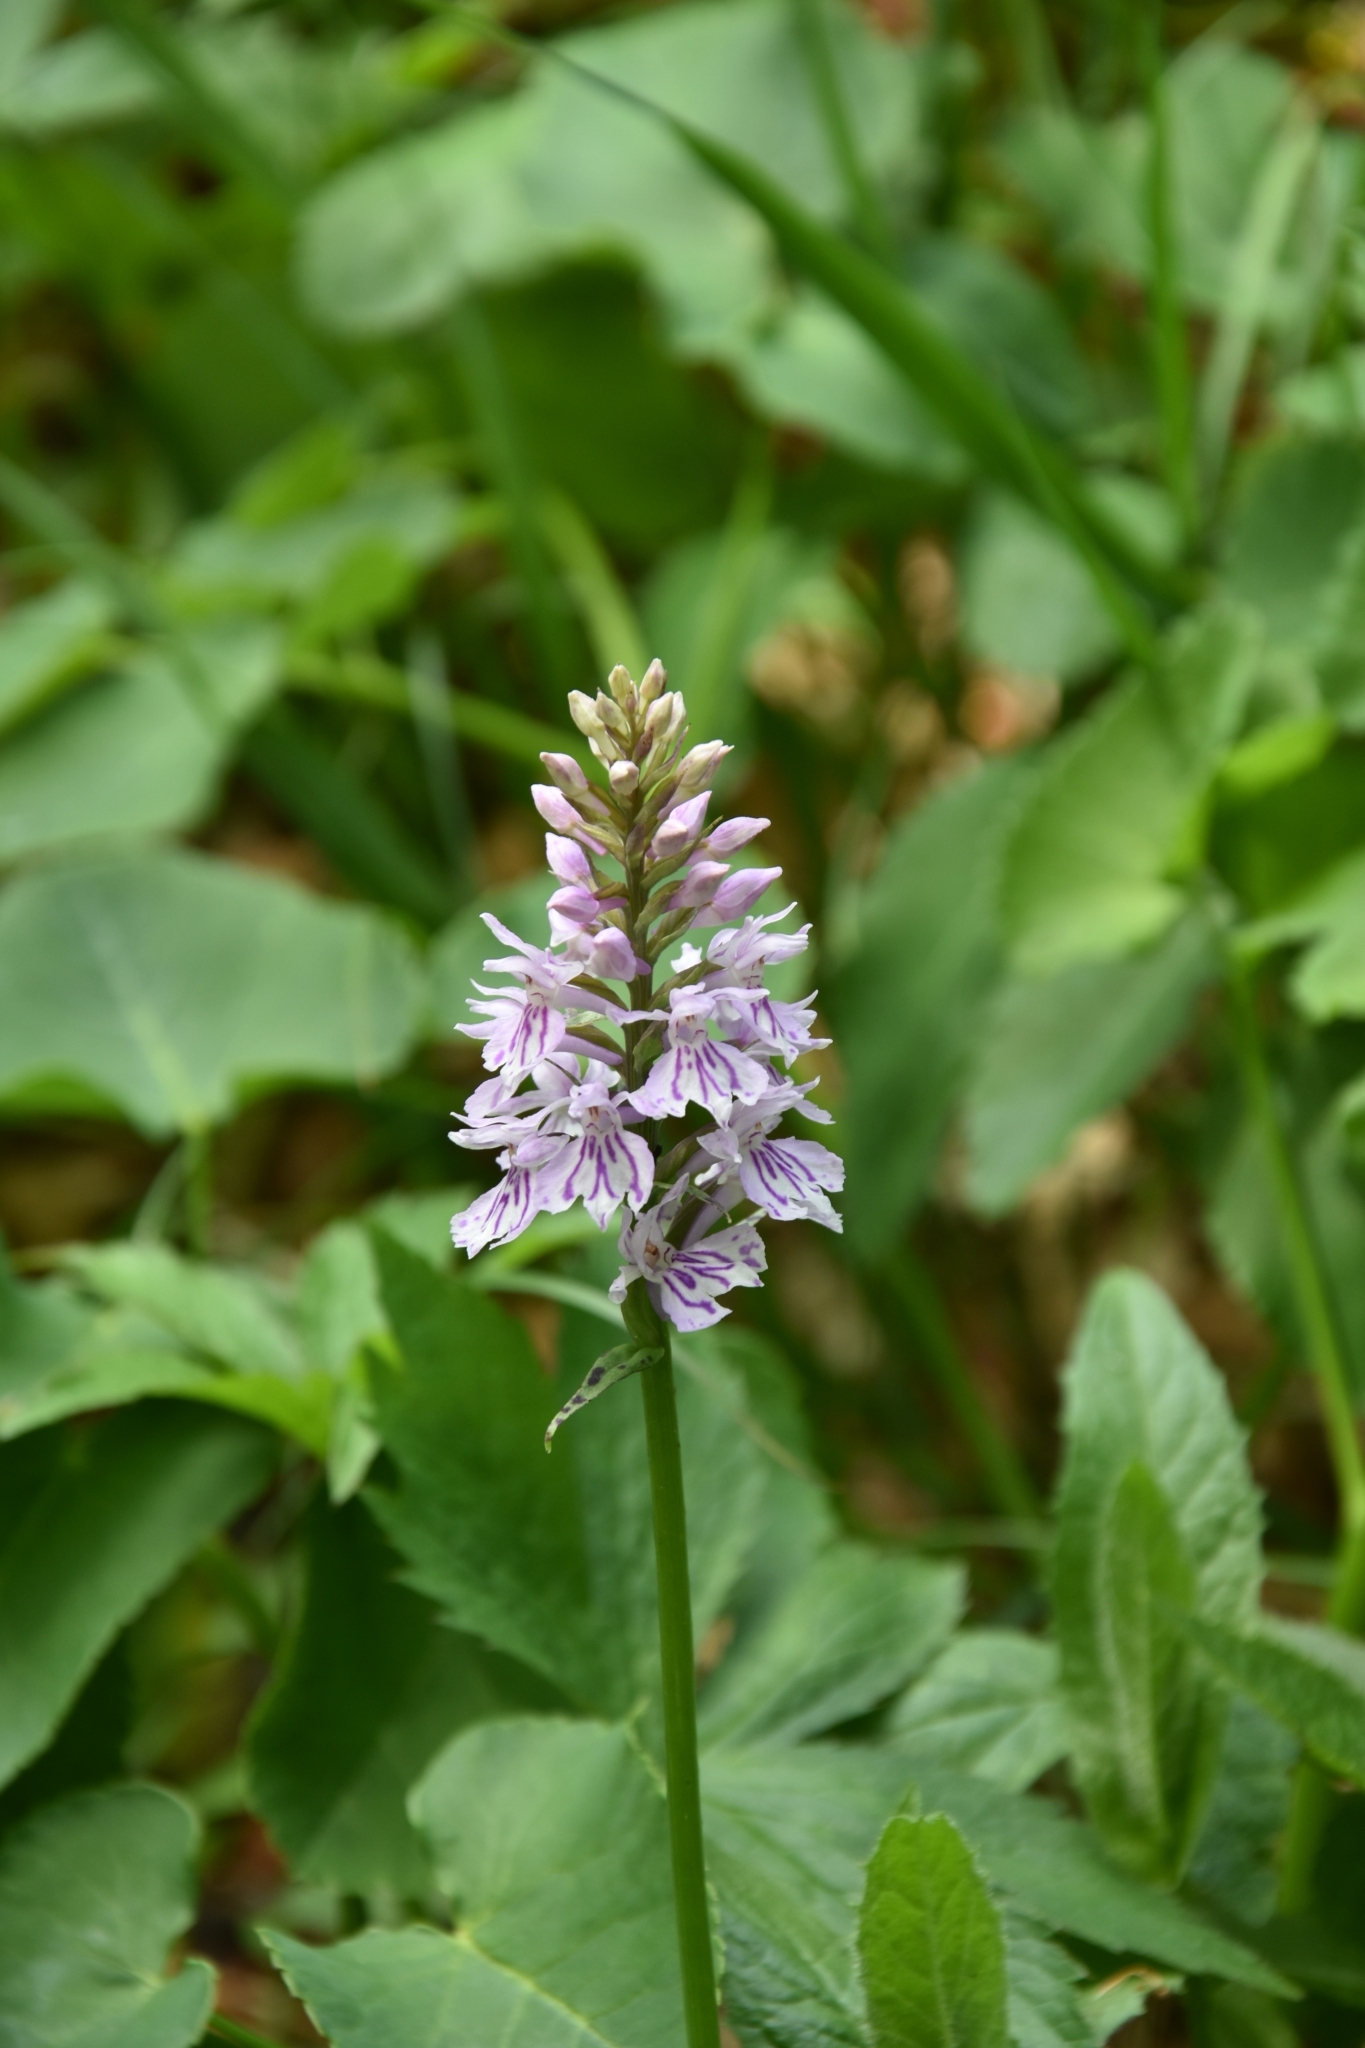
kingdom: Plantae
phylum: Tracheophyta
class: Liliopsida
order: Asparagales
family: Orchidaceae
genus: Dactylorhiza
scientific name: Dactylorhiza maculata
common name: Heath spotted-orchid
